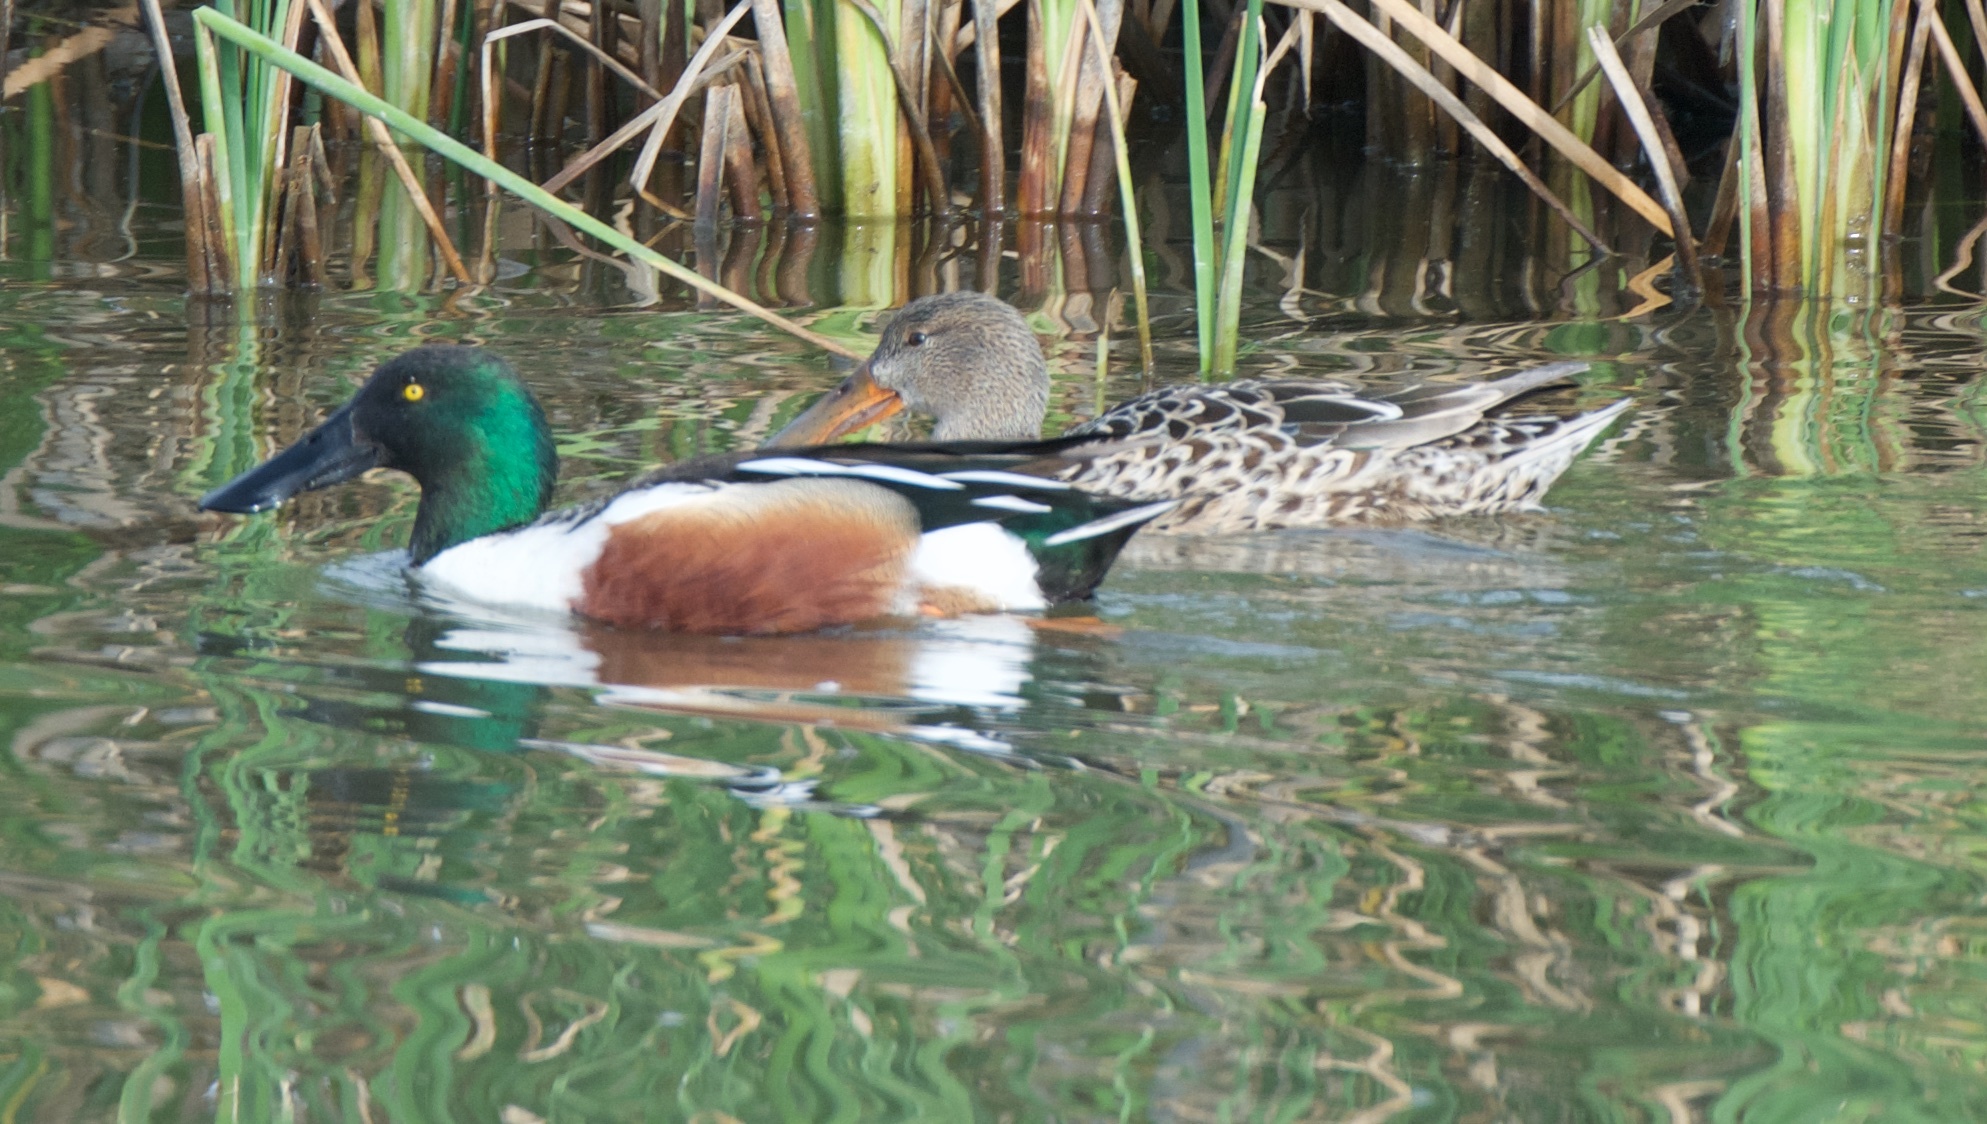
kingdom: Animalia
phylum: Chordata
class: Aves
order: Anseriformes
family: Anatidae
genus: Spatula
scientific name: Spatula clypeata
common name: Northern shoveler
